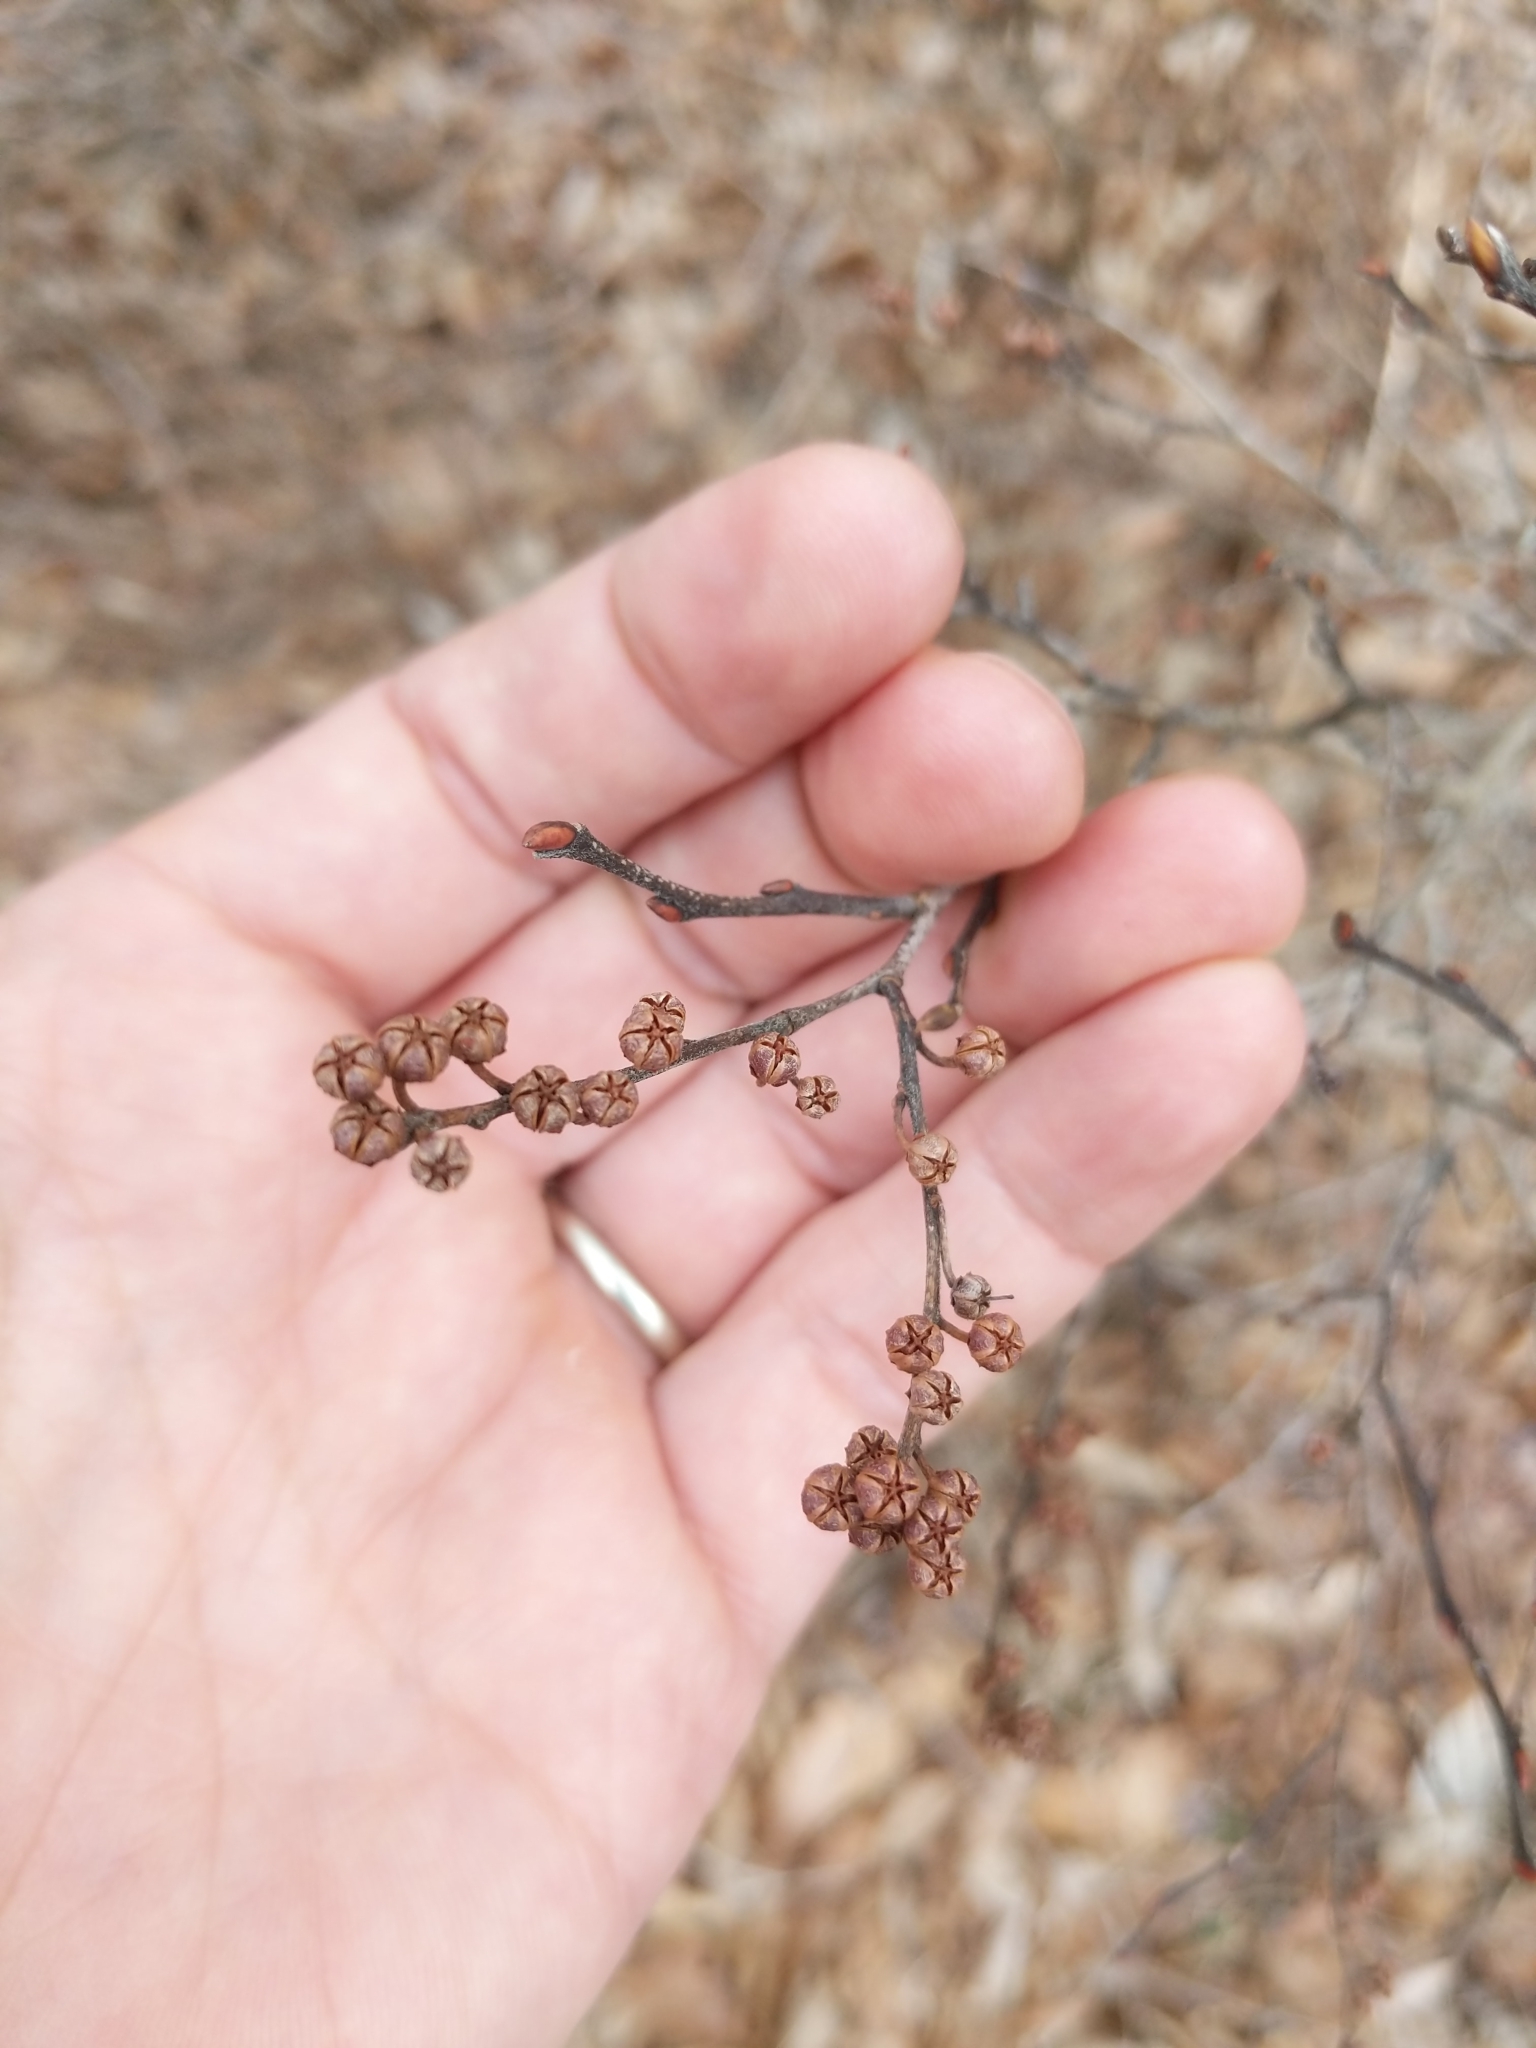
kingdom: Plantae
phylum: Tracheophyta
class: Magnoliopsida
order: Ericales
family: Ericaceae
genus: Lyonia
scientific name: Lyonia ligustrina
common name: Maleberry
